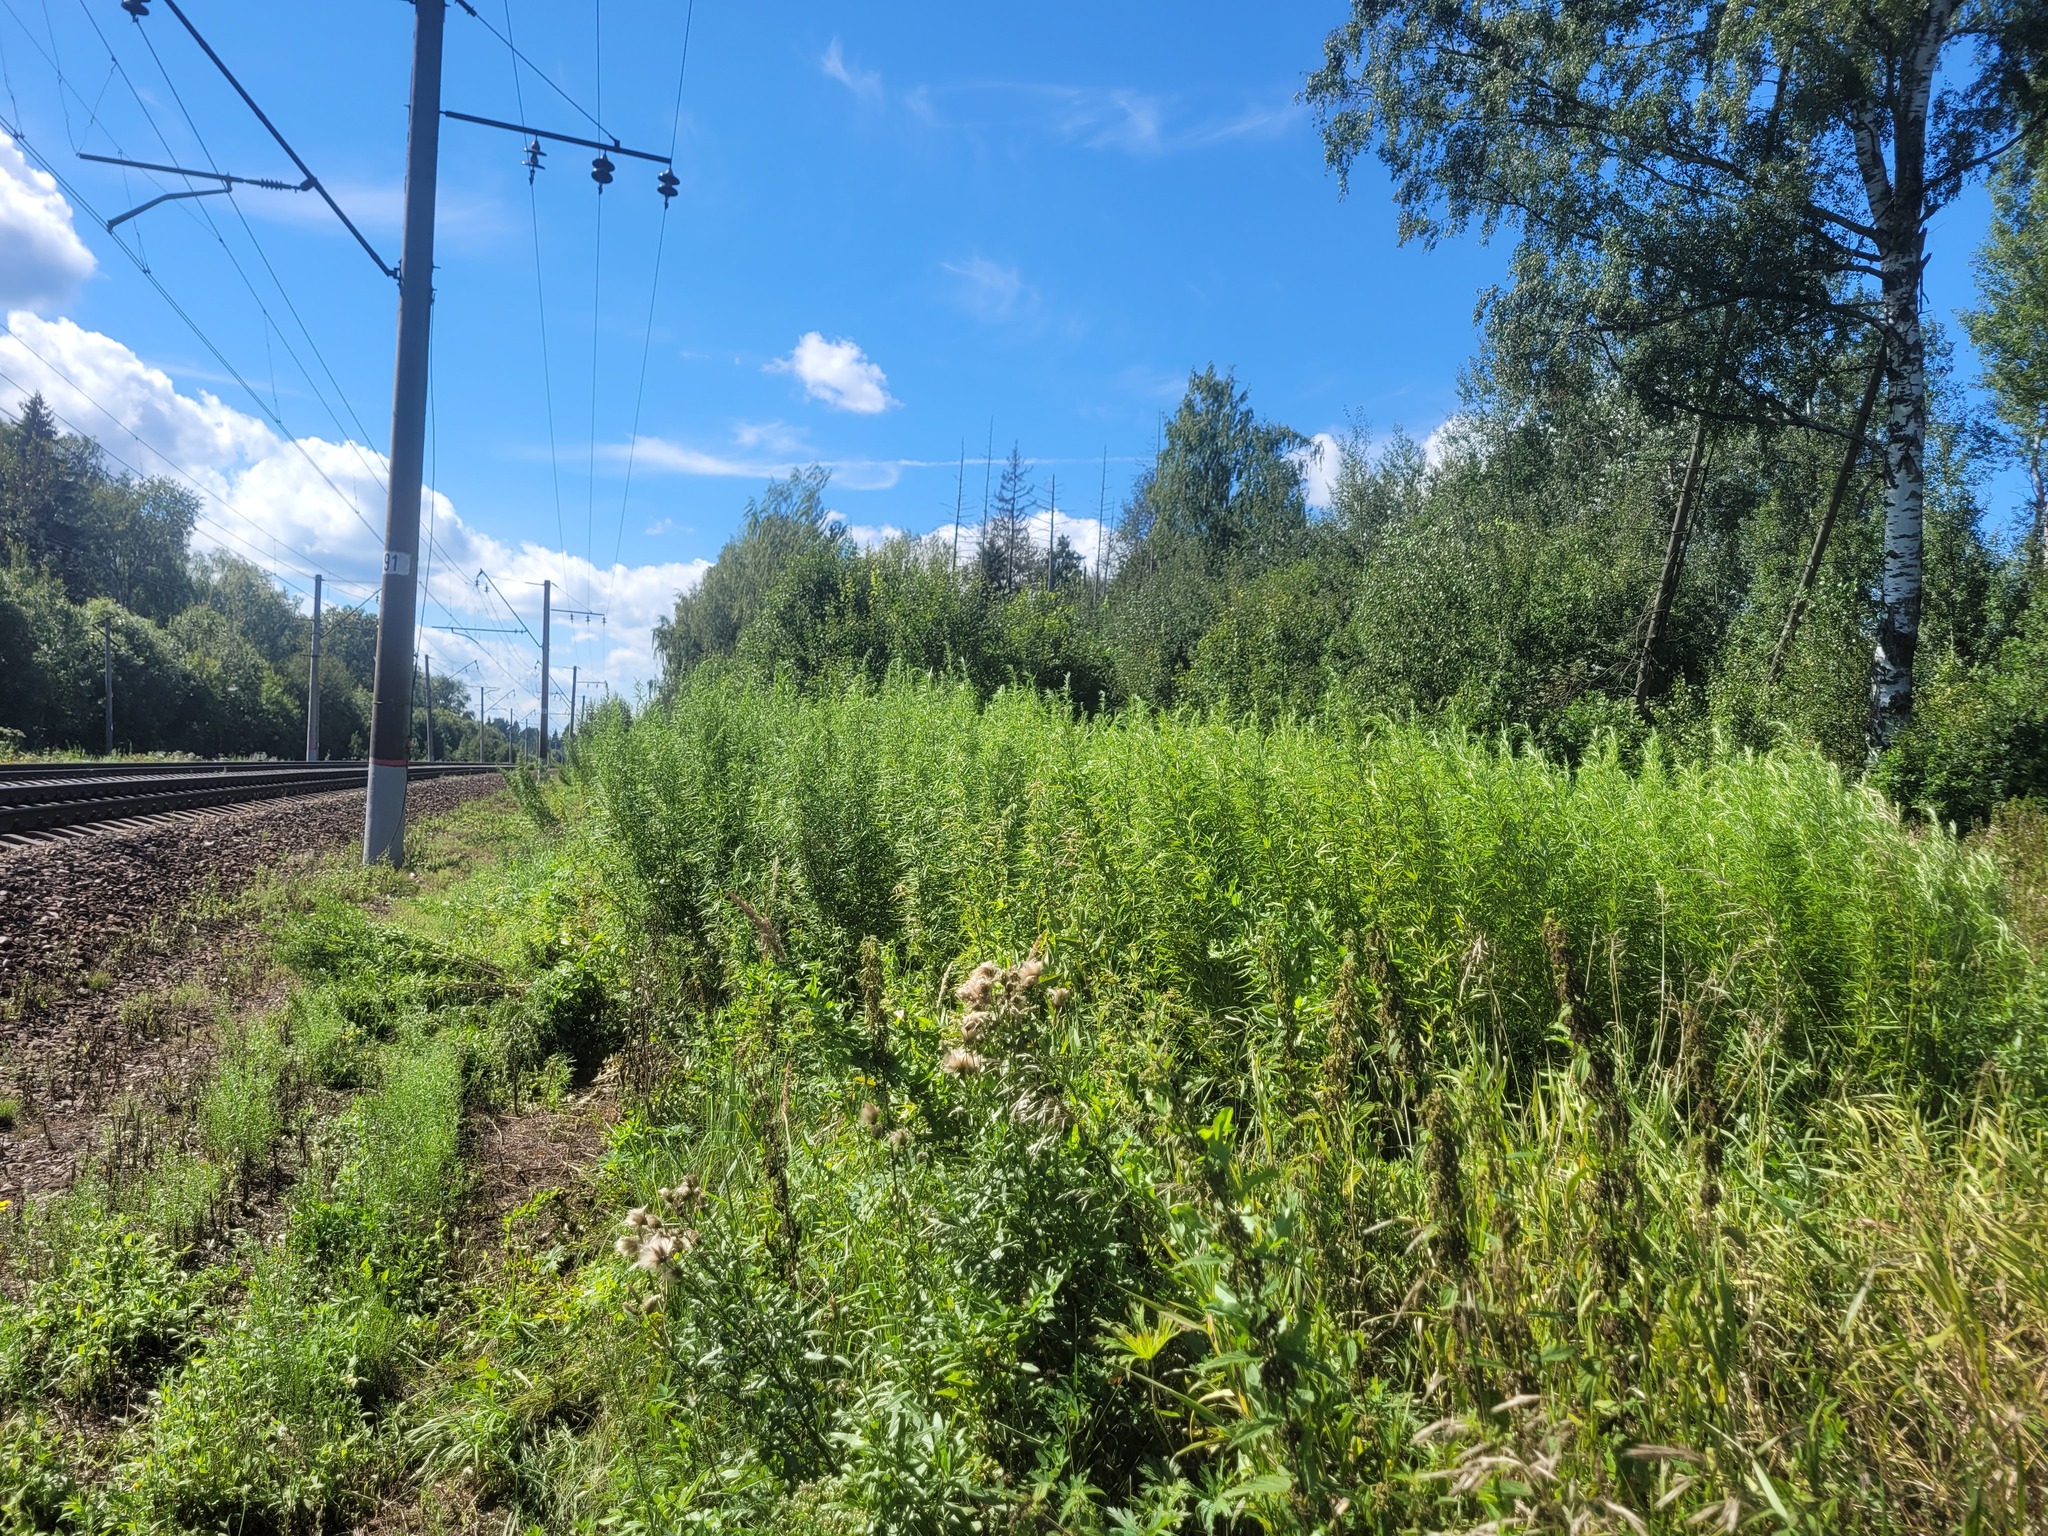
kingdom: Plantae
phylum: Tracheophyta
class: Magnoliopsida
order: Asterales
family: Asteraceae
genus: Artemisia
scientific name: Artemisia umbrosa
